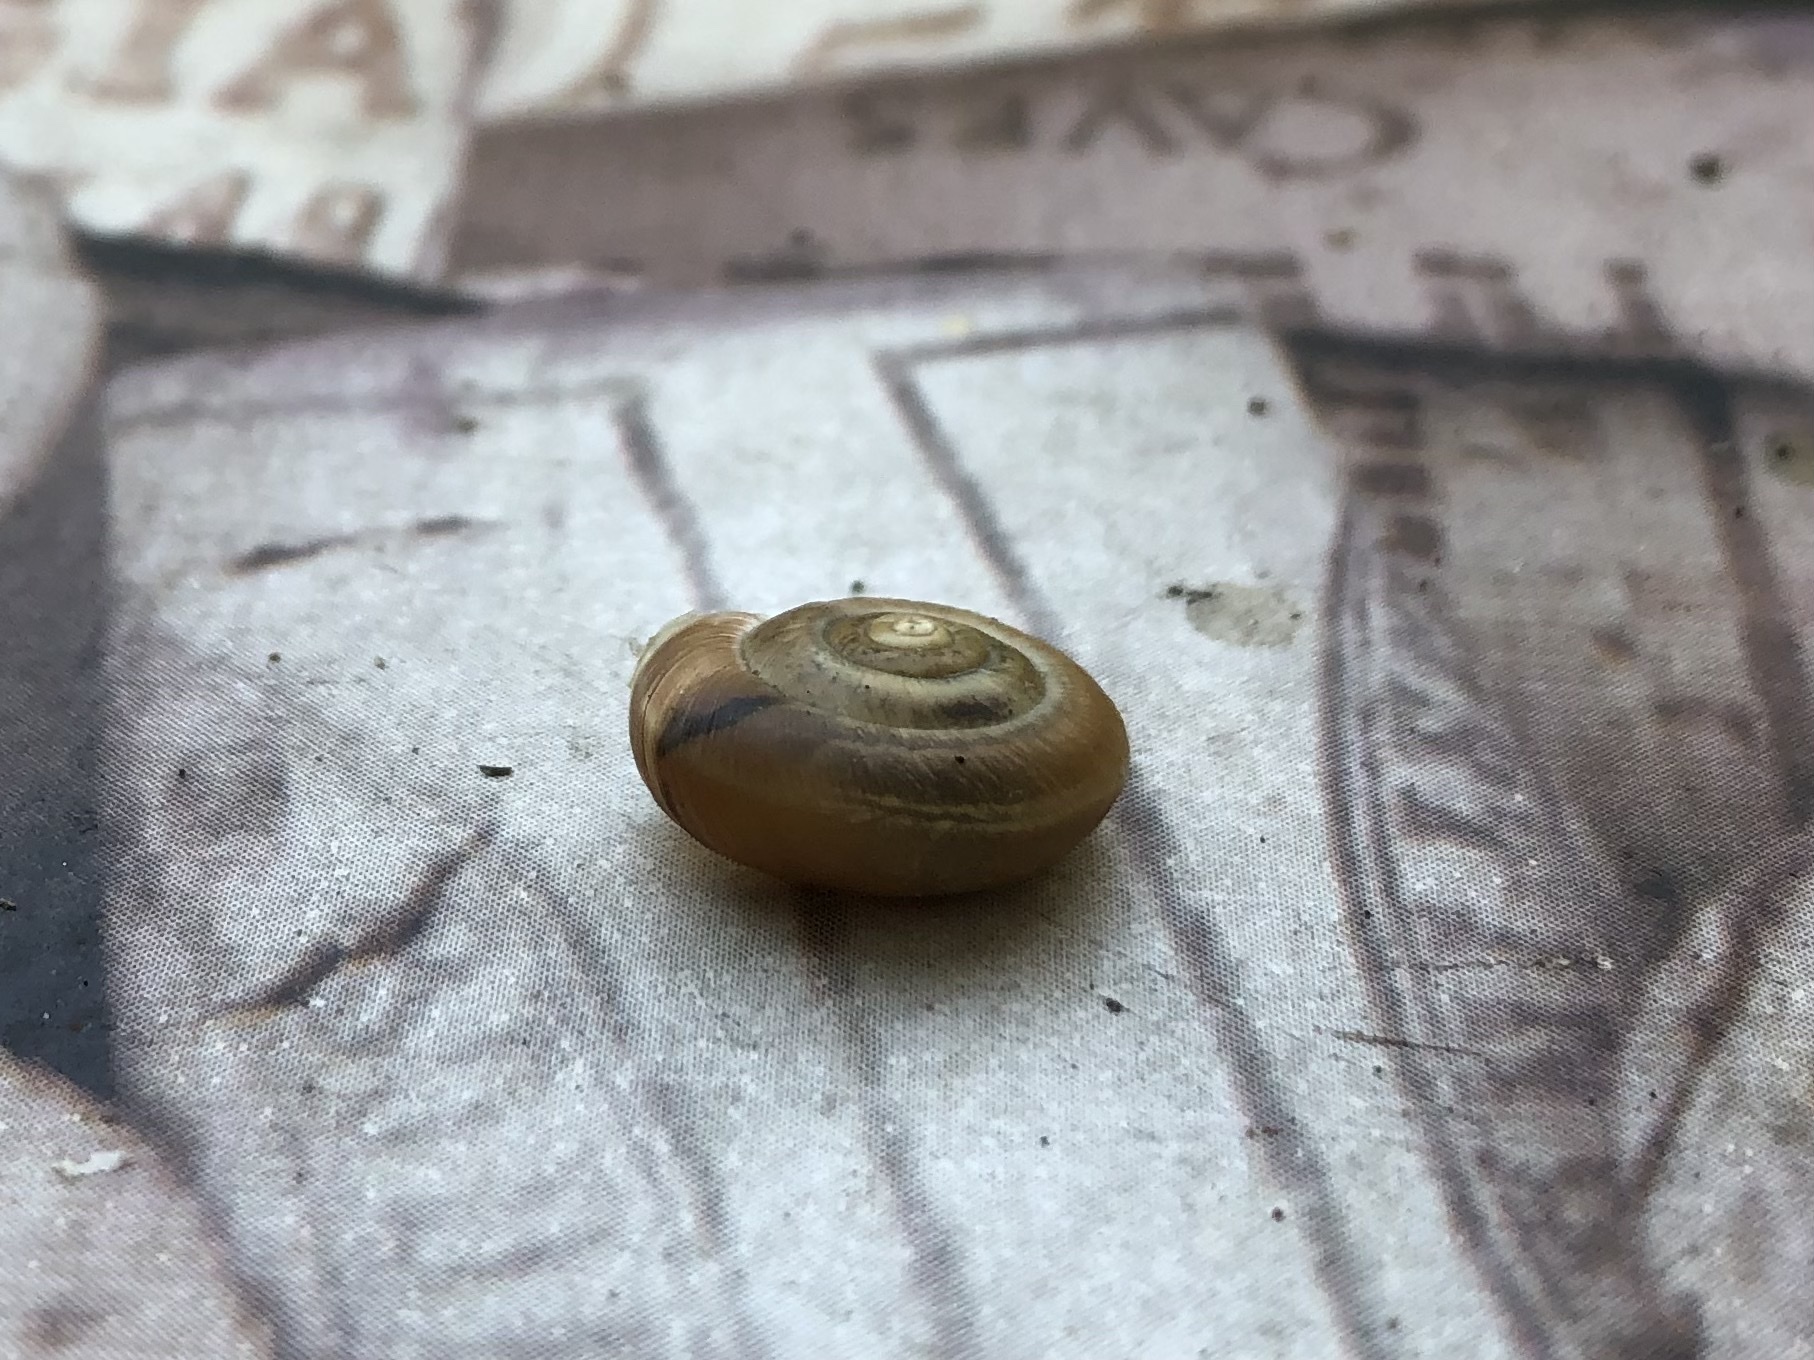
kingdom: Animalia
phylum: Mollusca
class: Gastropoda
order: Stylommatophora
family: Hygromiidae
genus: Urticicola
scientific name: Urticicola umbrosus
